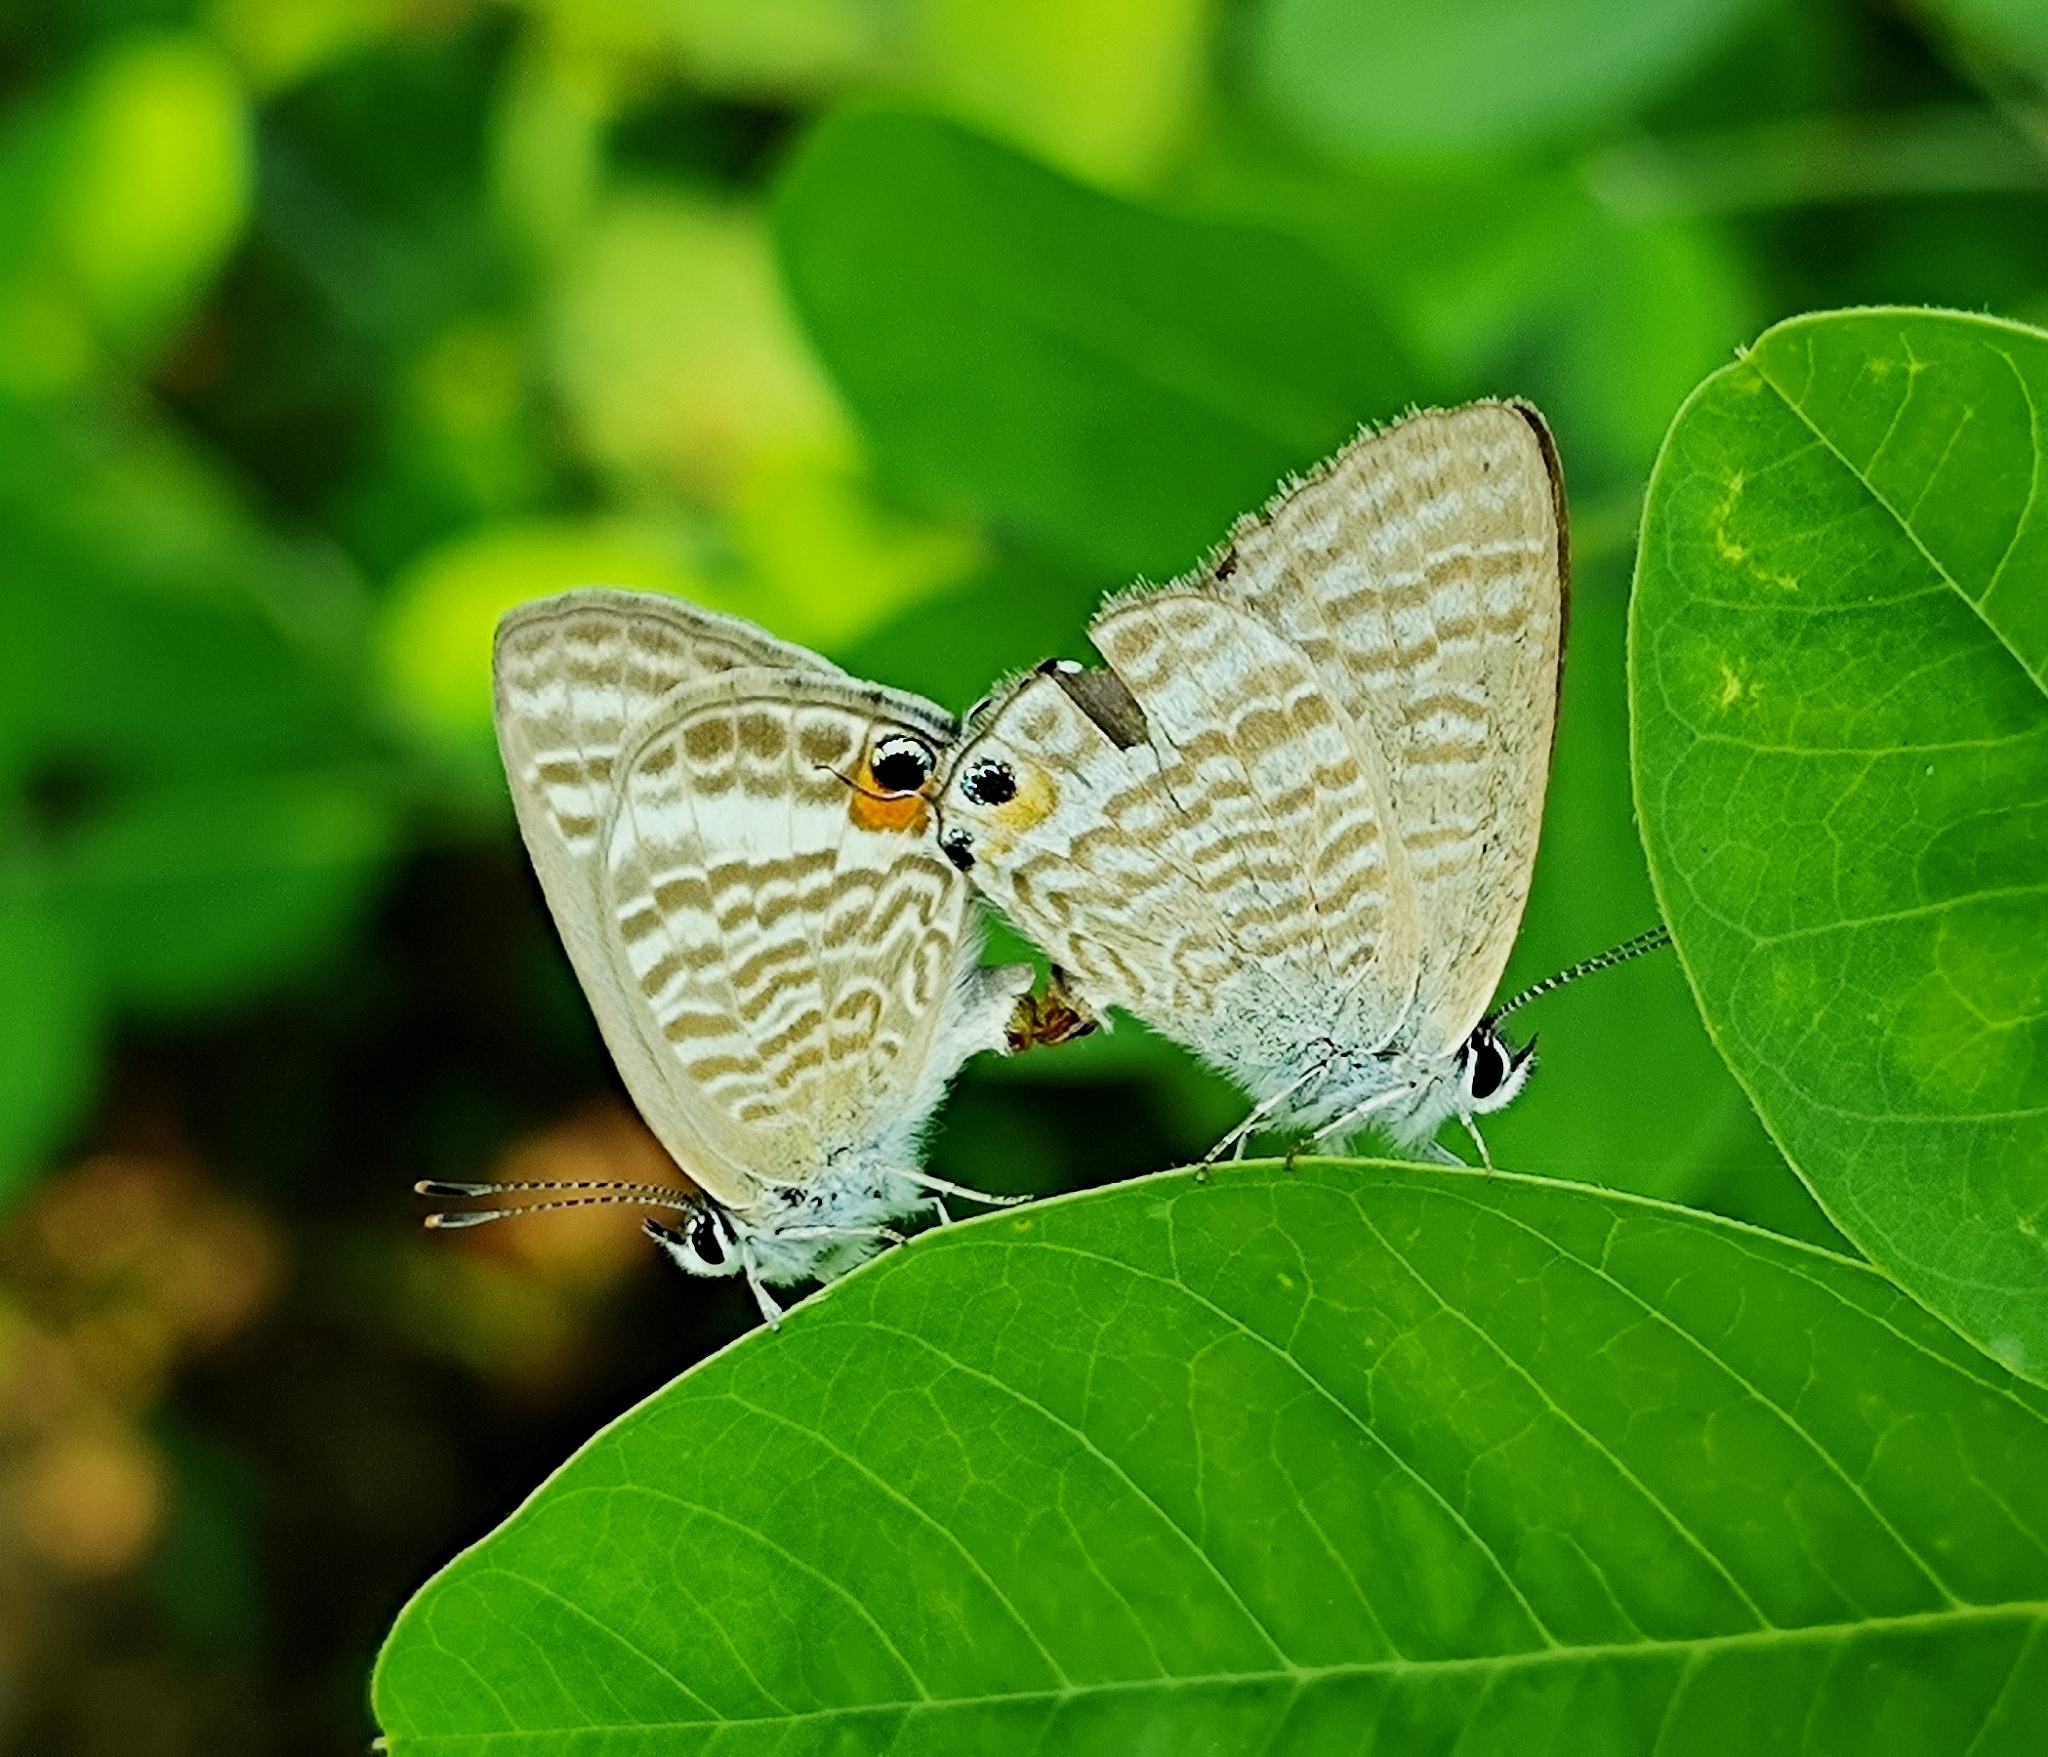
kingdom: Animalia
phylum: Arthropoda
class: Insecta
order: Lepidoptera
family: Lycaenidae
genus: Lampides
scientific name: Lampides boeticus
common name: Long-tailed blue
